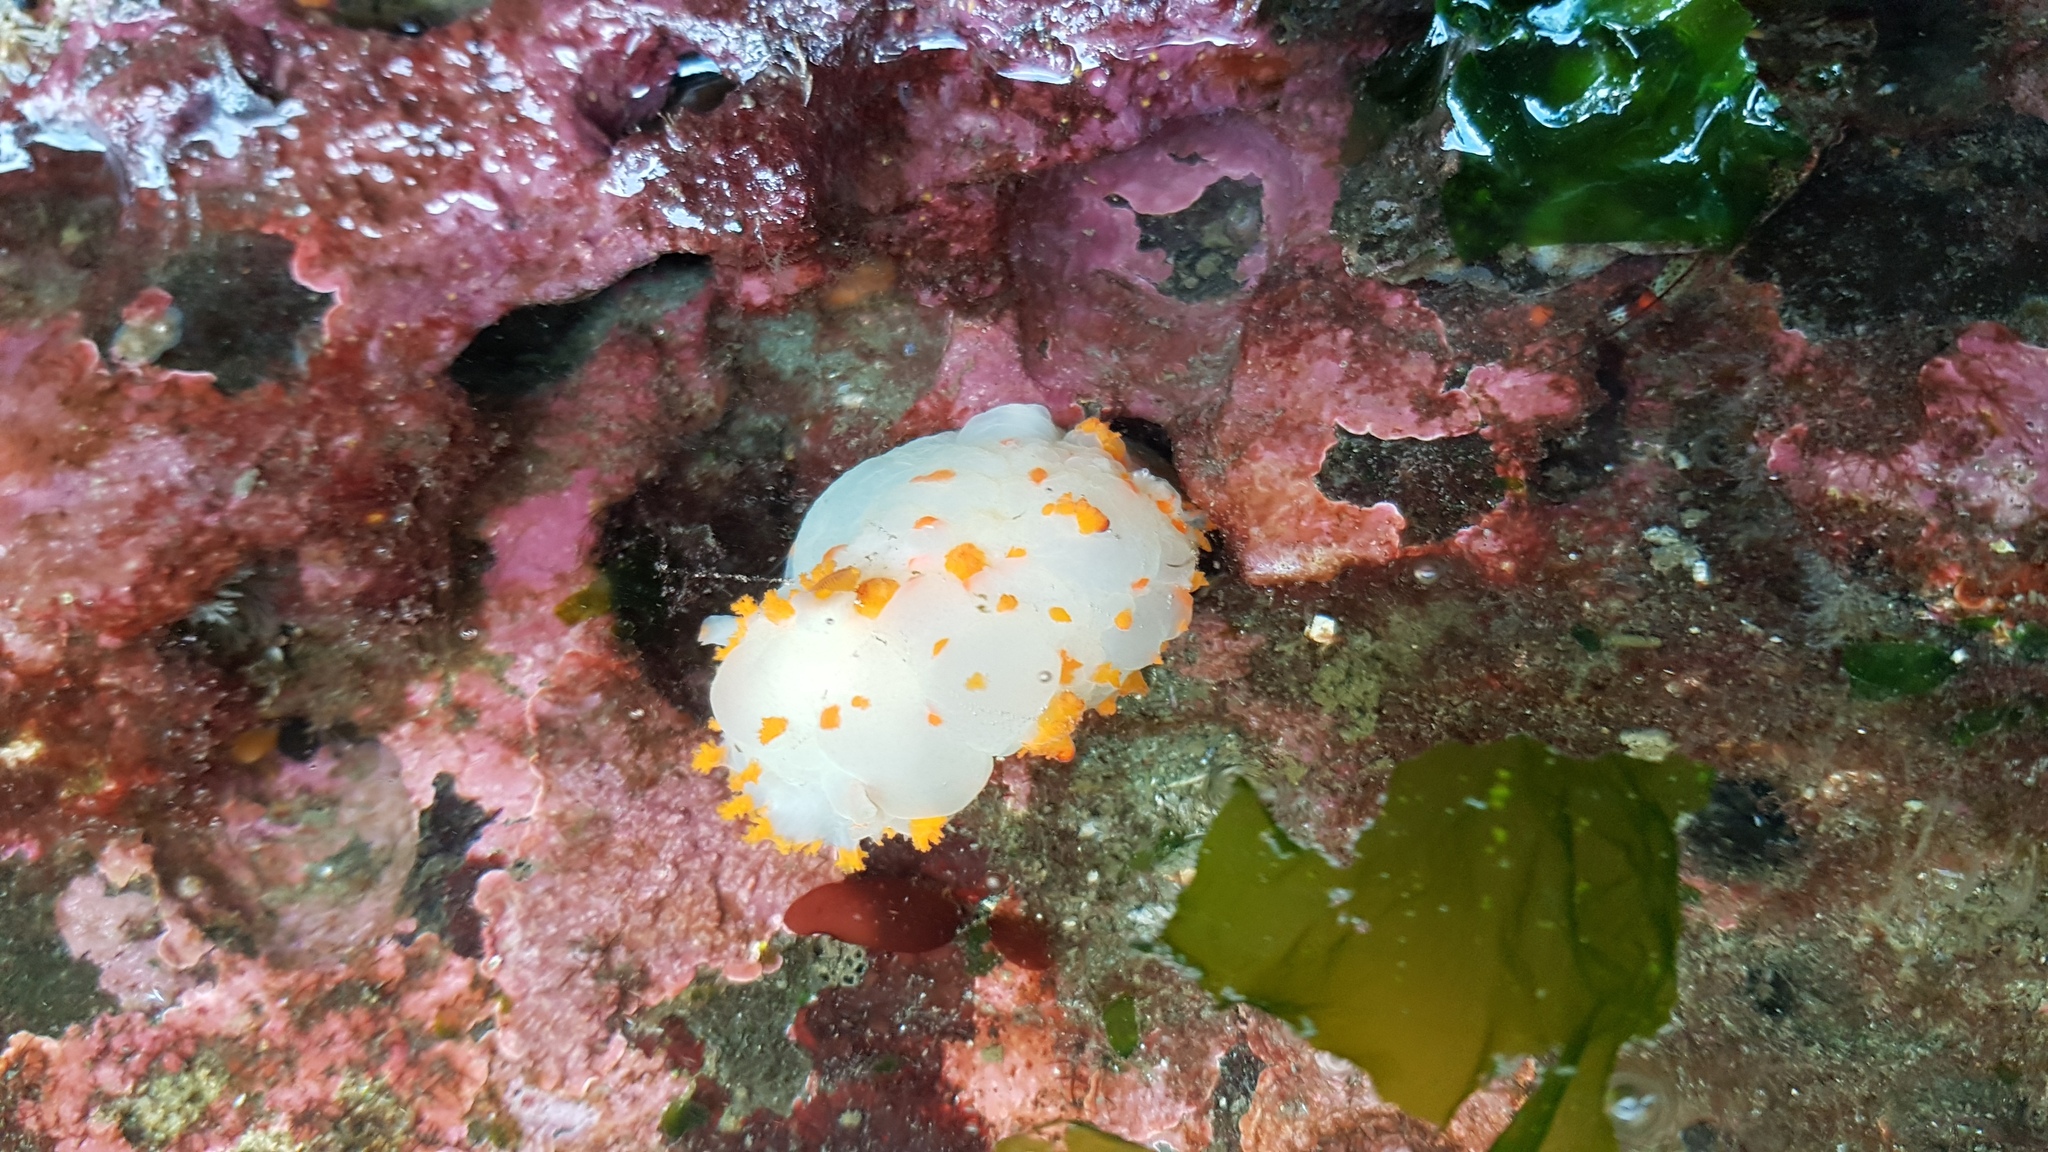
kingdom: Animalia
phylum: Mollusca
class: Gastropoda
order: Nudibranchia
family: Polyceridae
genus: Triopha
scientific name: Triopha modesta
